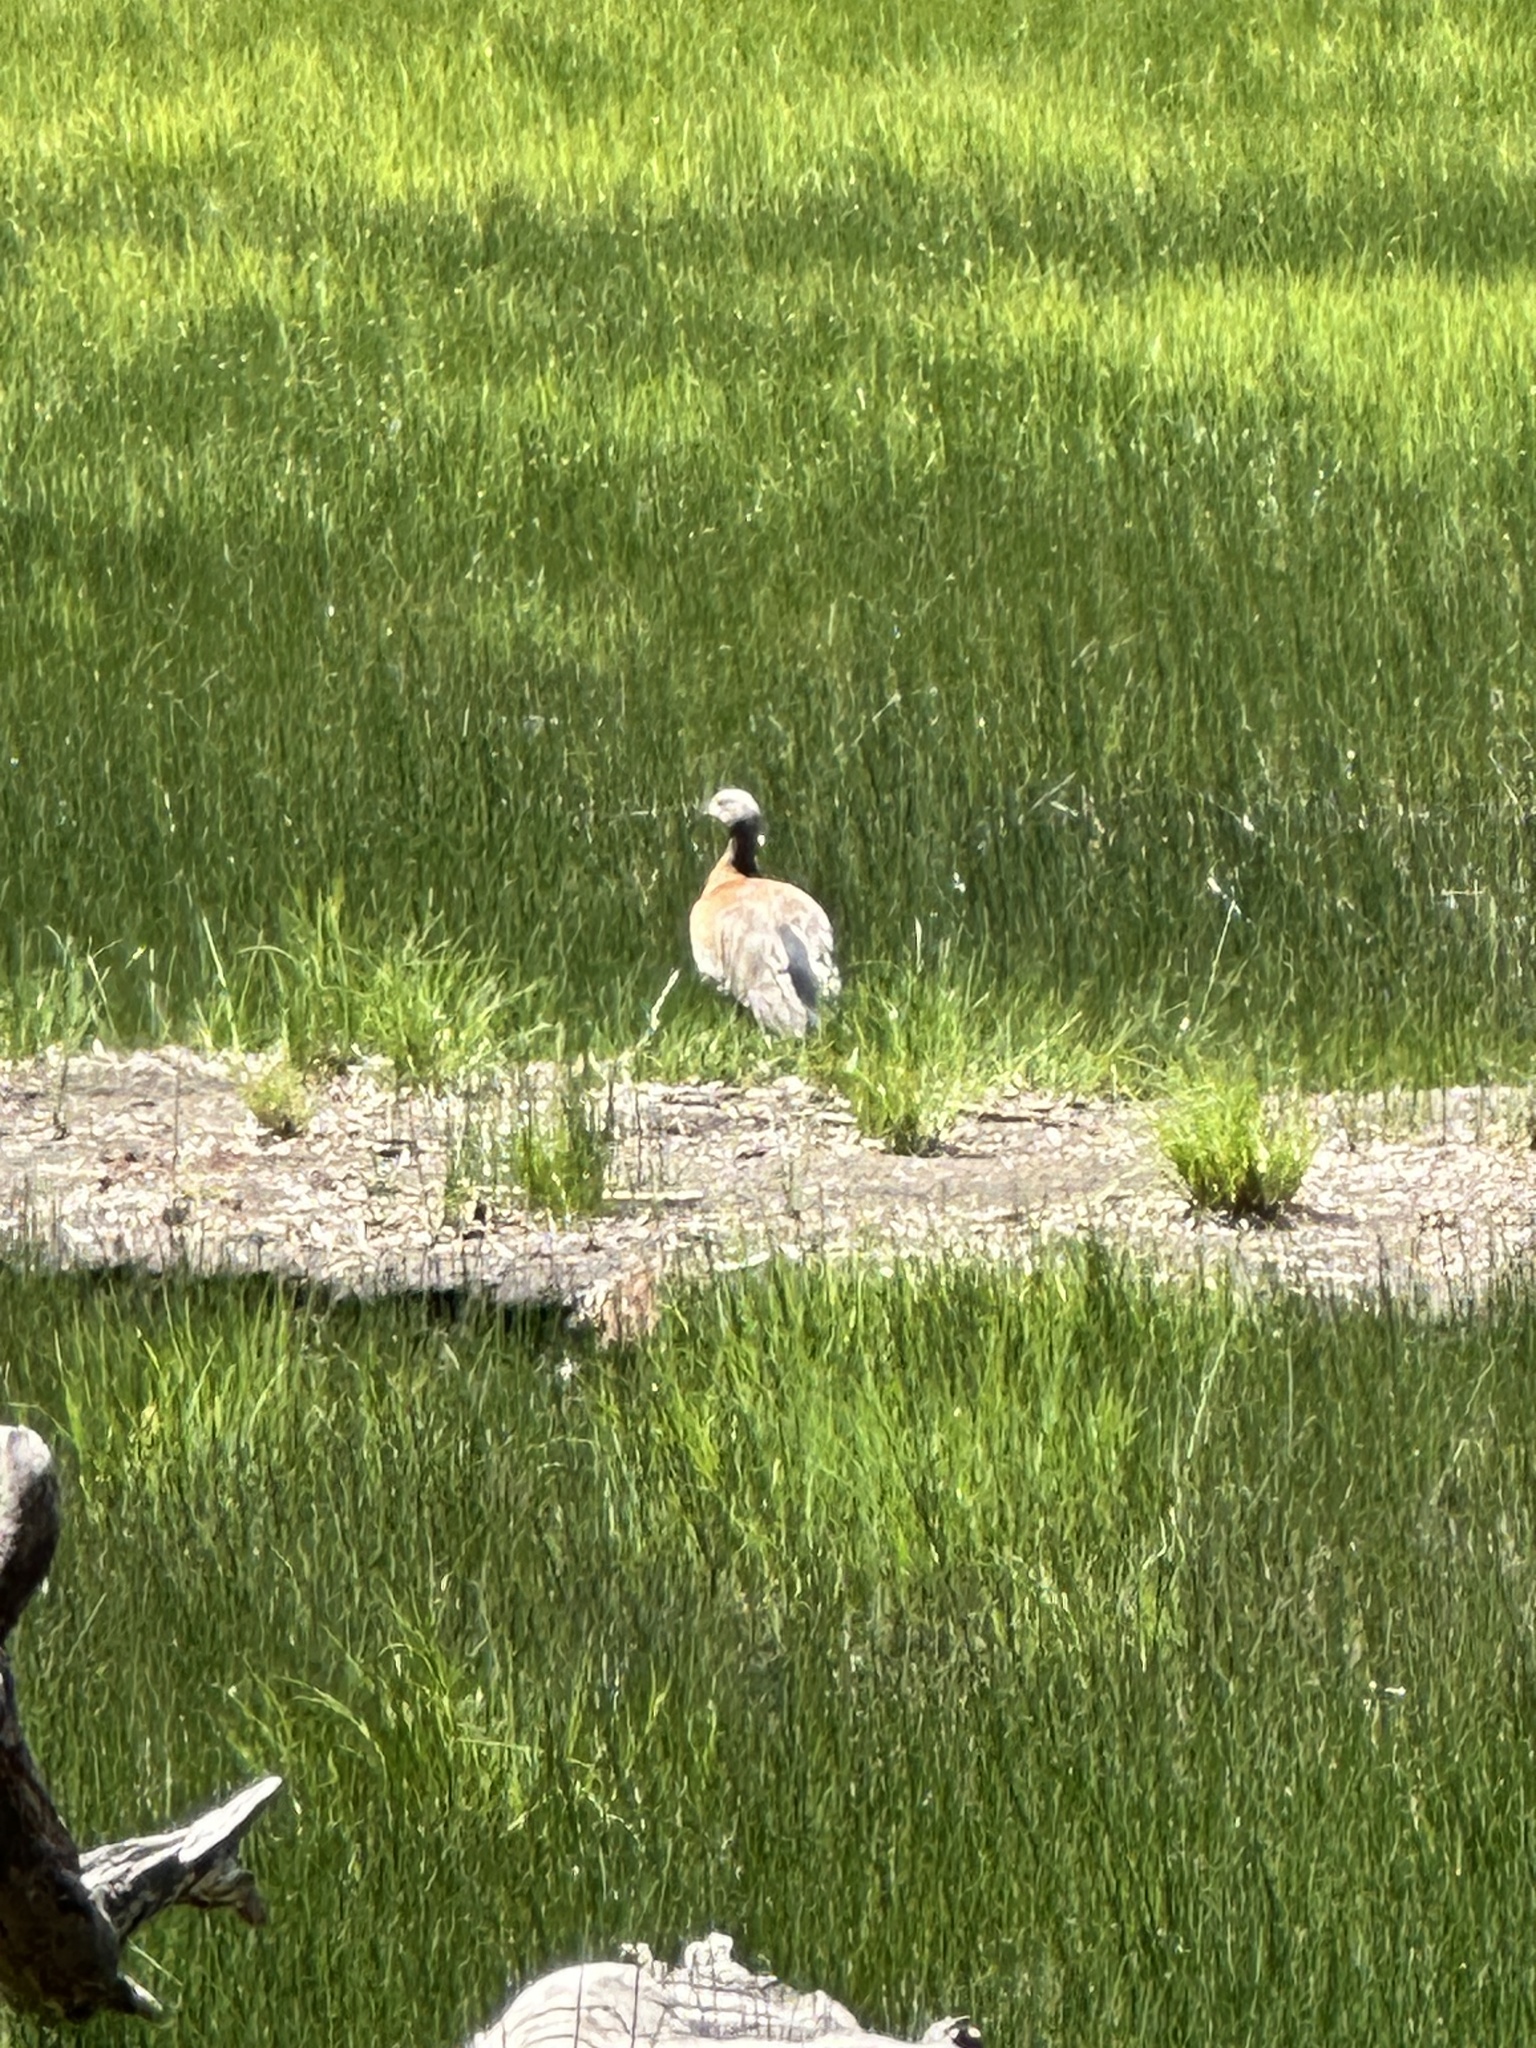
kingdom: Animalia
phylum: Chordata
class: Aves
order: Anseriformes
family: Anatidae
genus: Chloephaga
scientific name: Chloephaga poliocephala
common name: Ashy-headed goose
